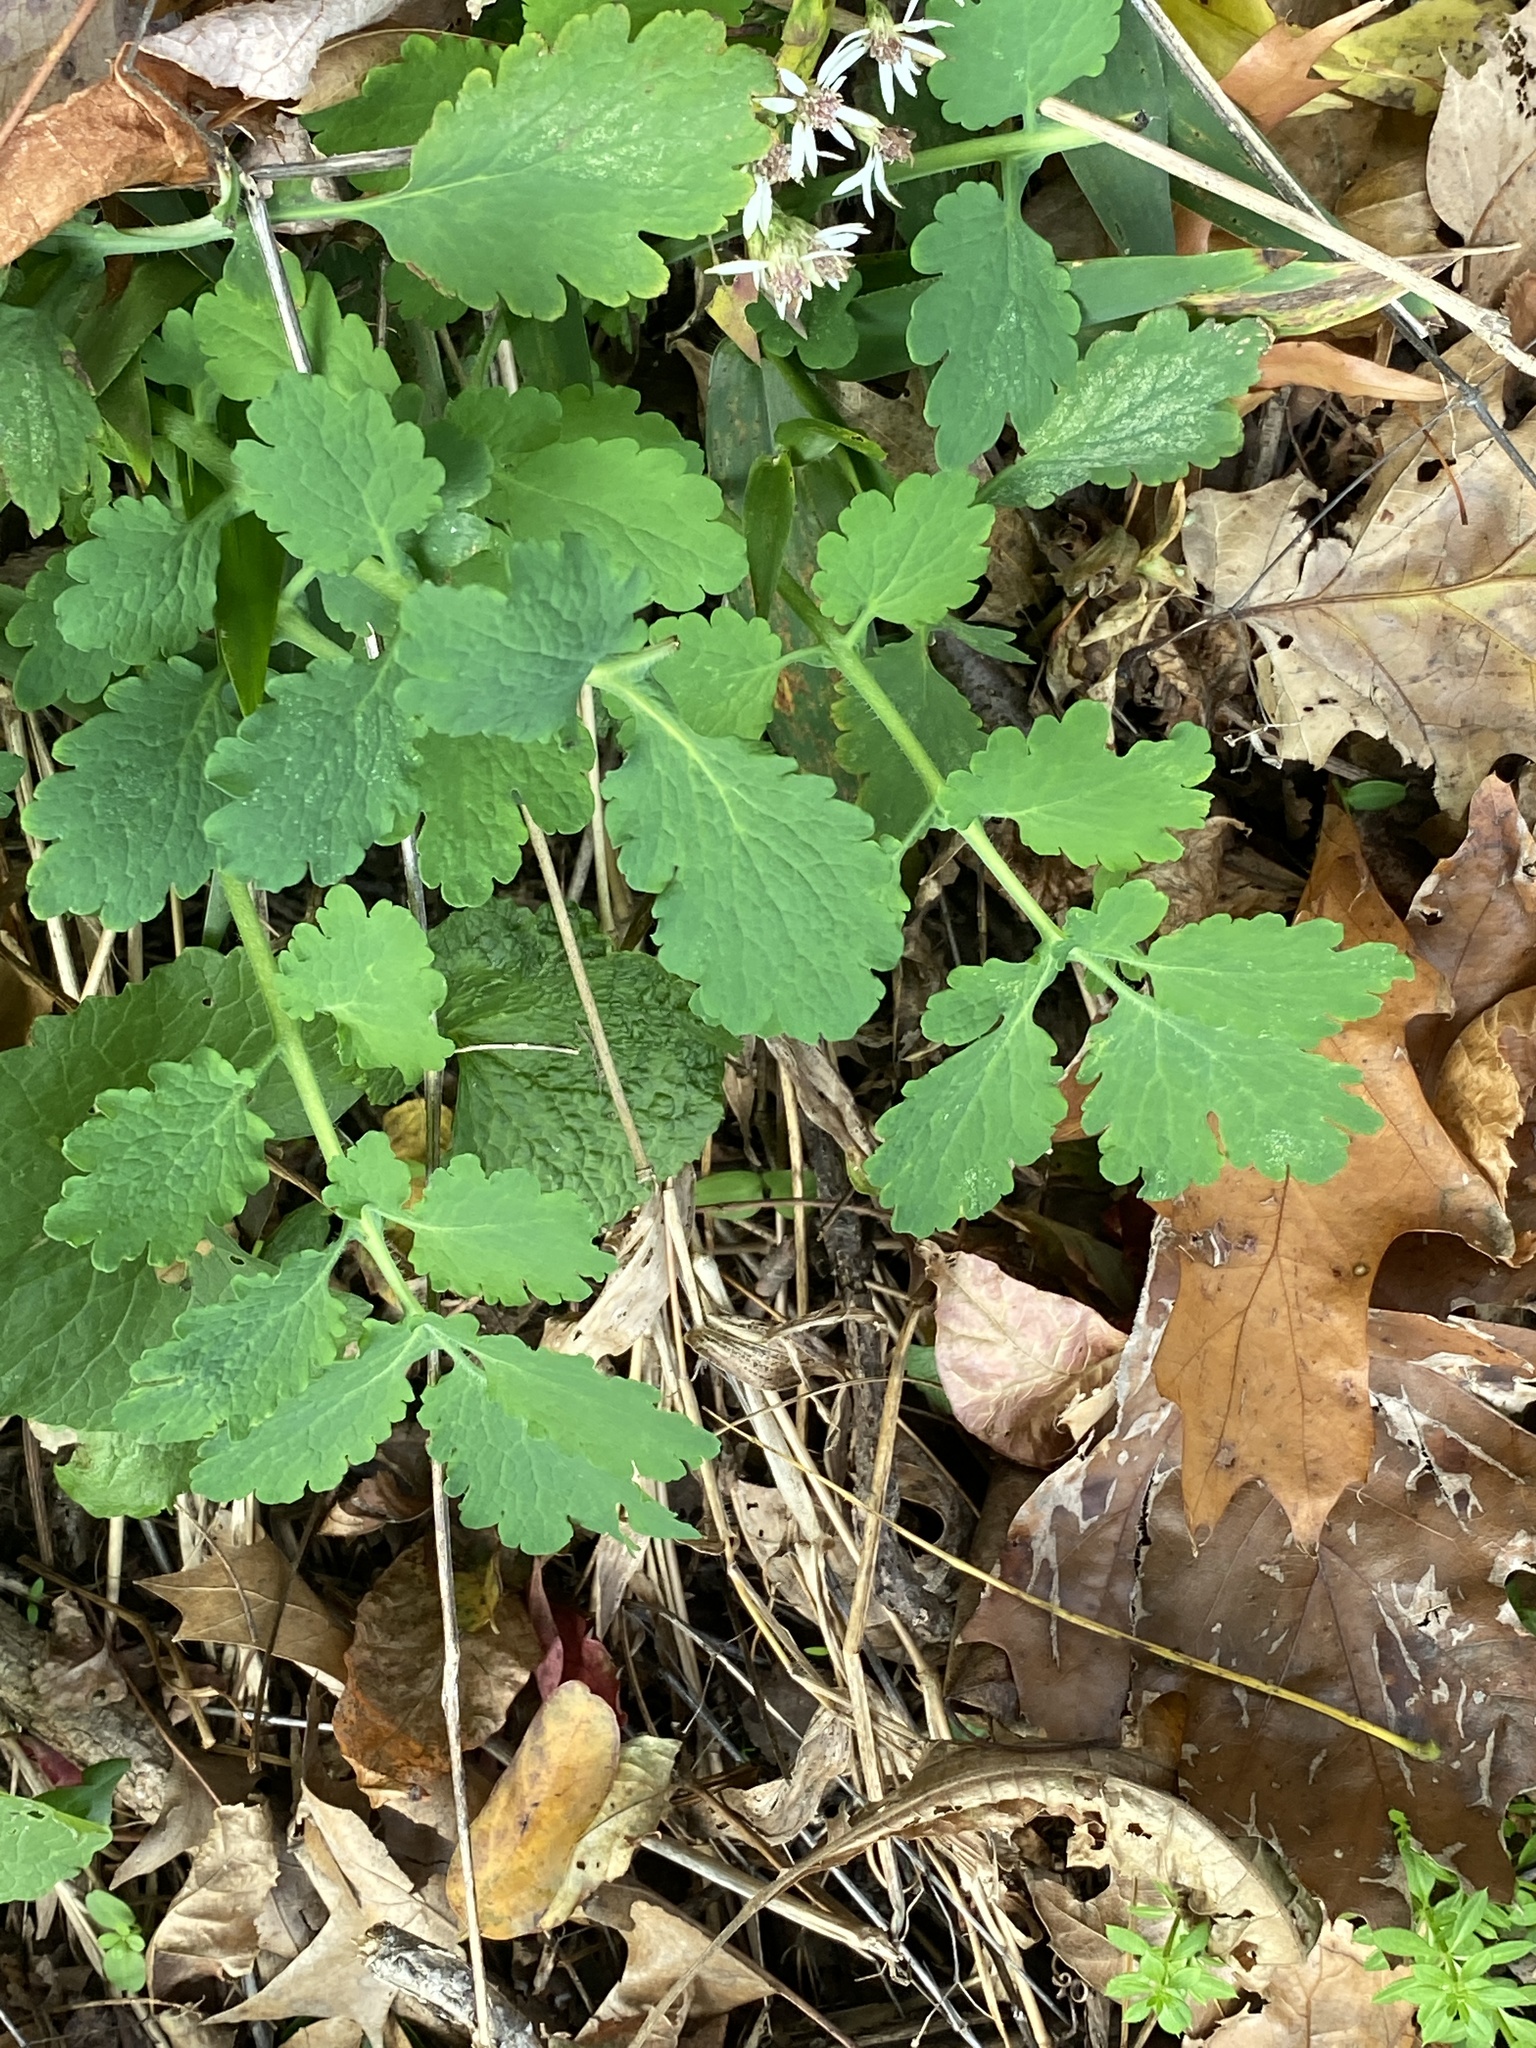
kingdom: Plantae
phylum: Tracheophyta
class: Magnoliopsida
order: Ranunculales
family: Papaveraceae
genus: Chelidonium
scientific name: Chelidonium majus
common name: Greater celandine
